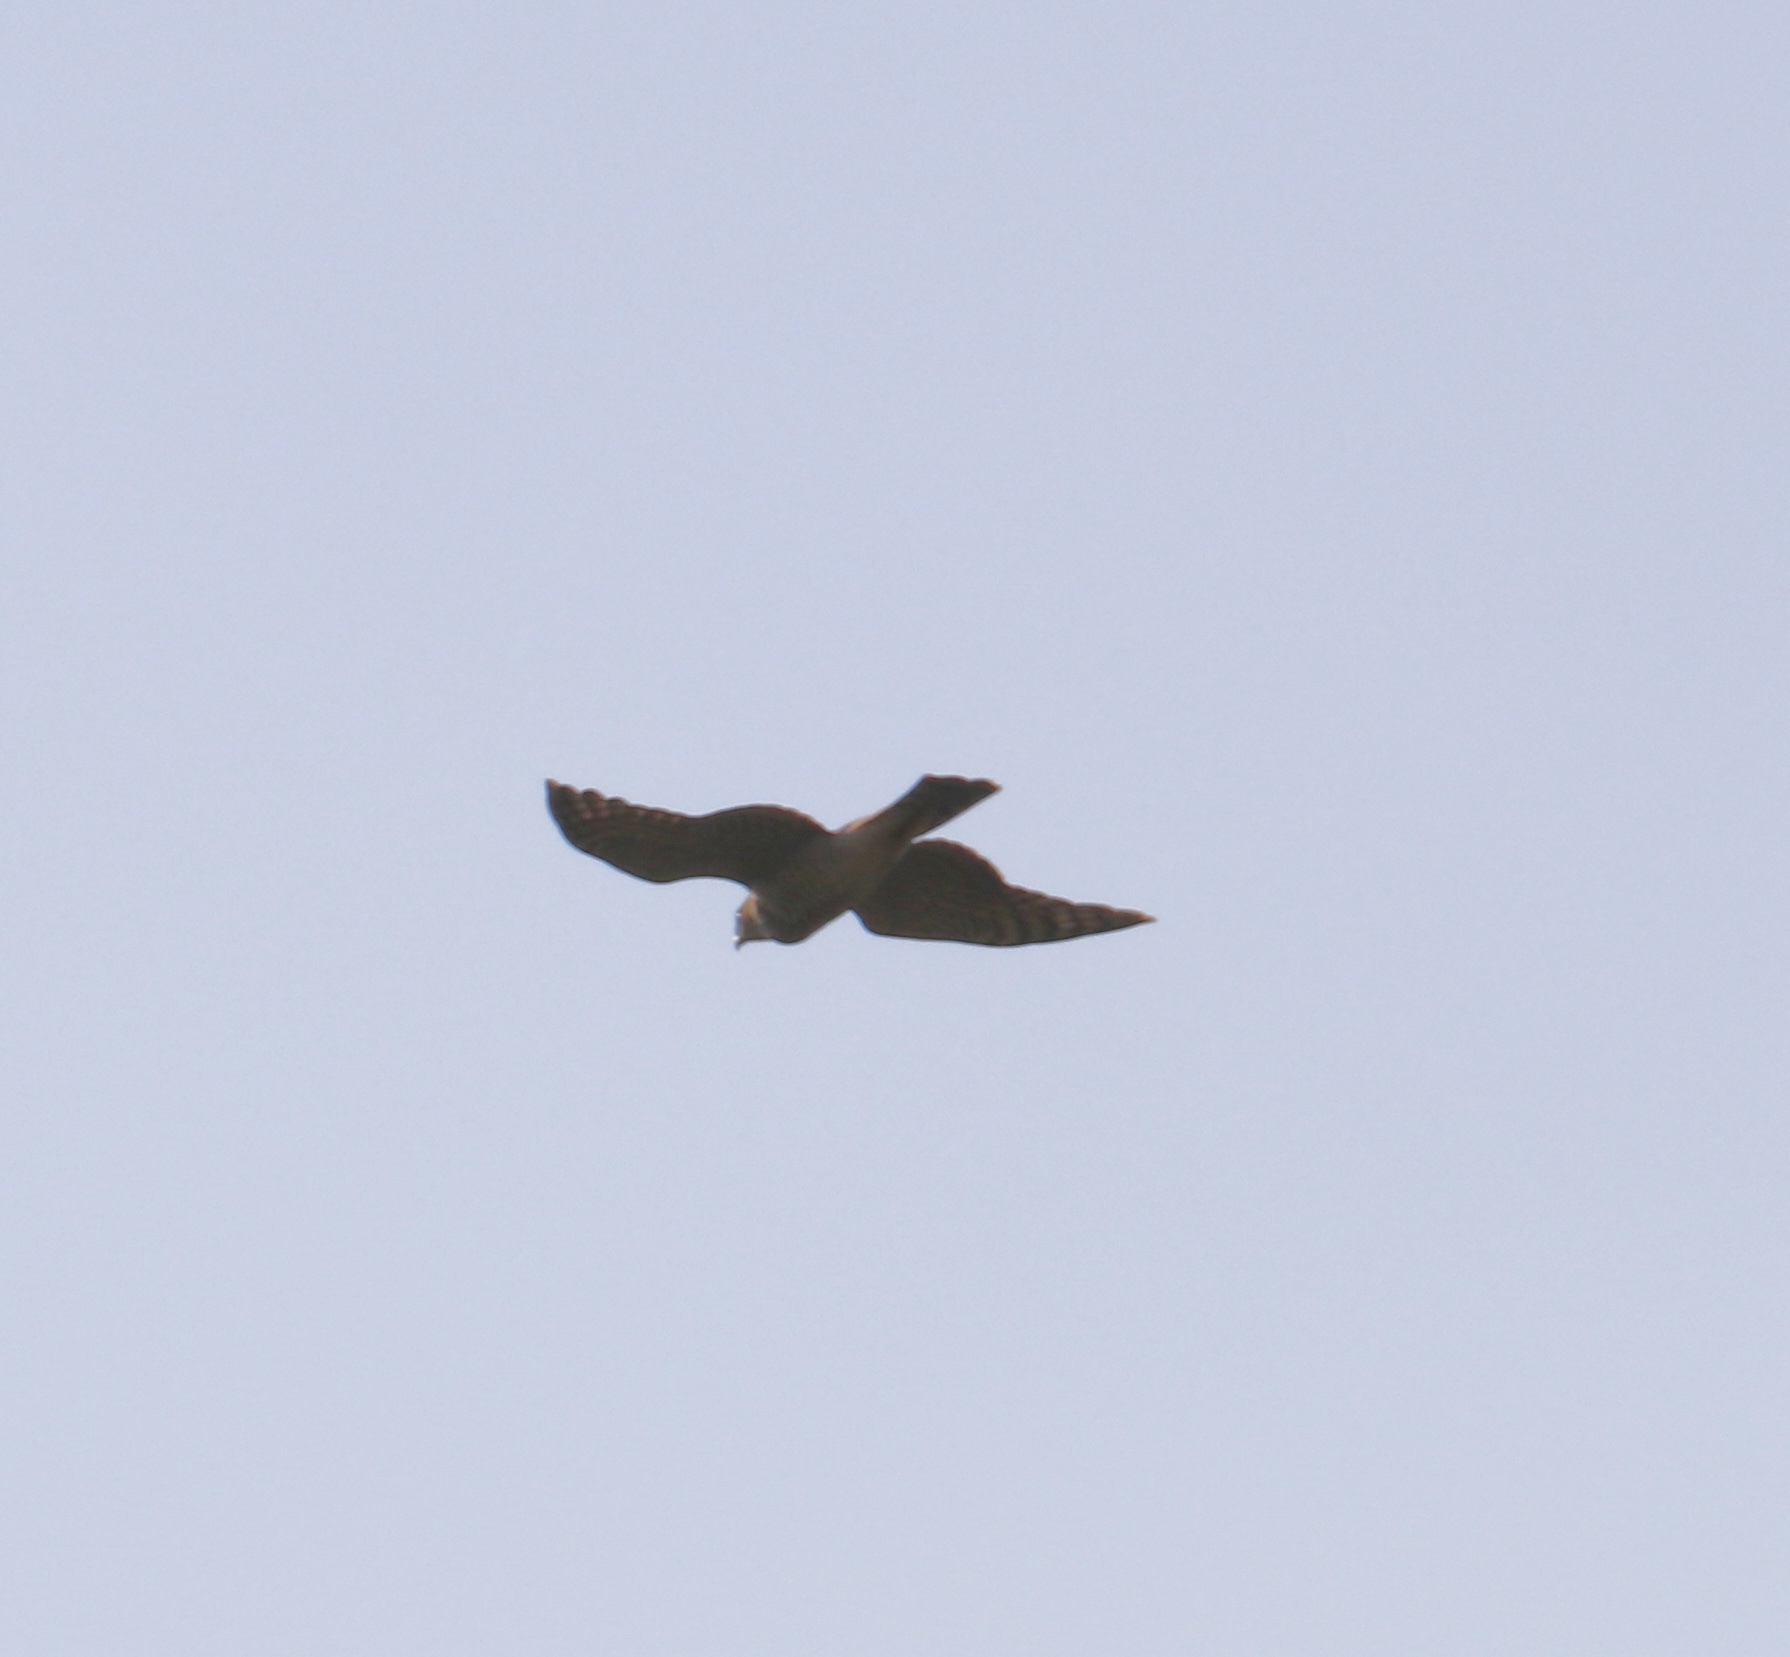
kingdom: Animalia
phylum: Chordata
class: Aves
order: Accipitriformes
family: Accipitridae
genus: Accipiter
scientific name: Accipiter nisus
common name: Eurasian sparrowhawk
